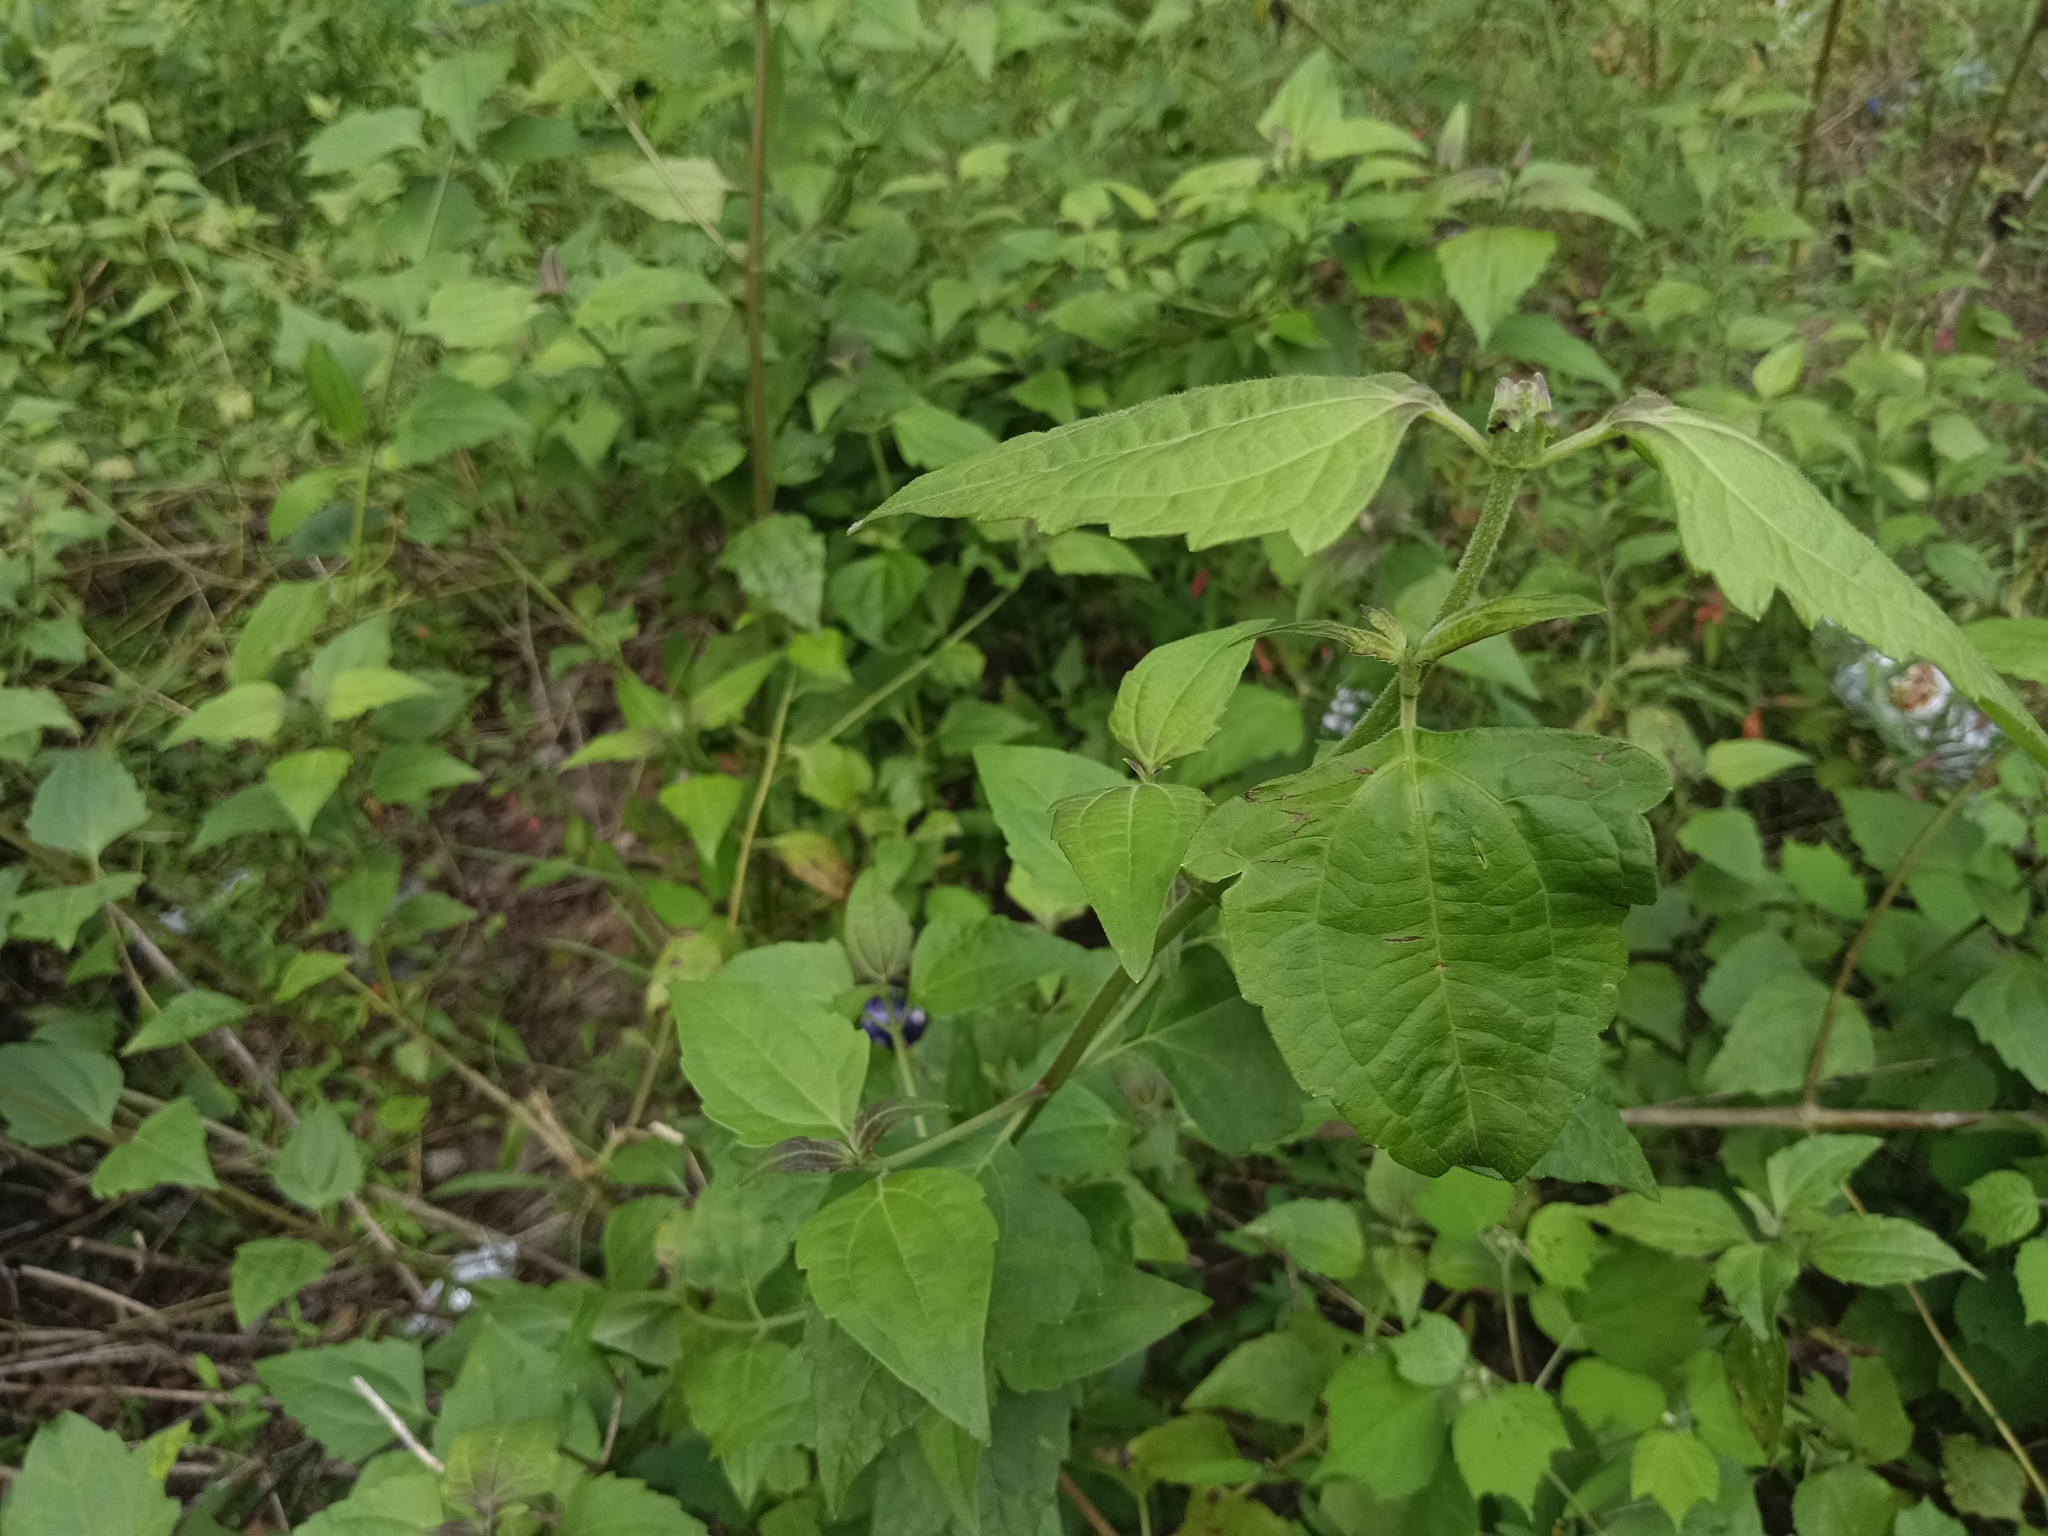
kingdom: Plantae
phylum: Tracheophyta
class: Magnoliopsida
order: Asterales
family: Asteraceae
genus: Chromolaena
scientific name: Chromolaena odorata
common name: Siamweed
